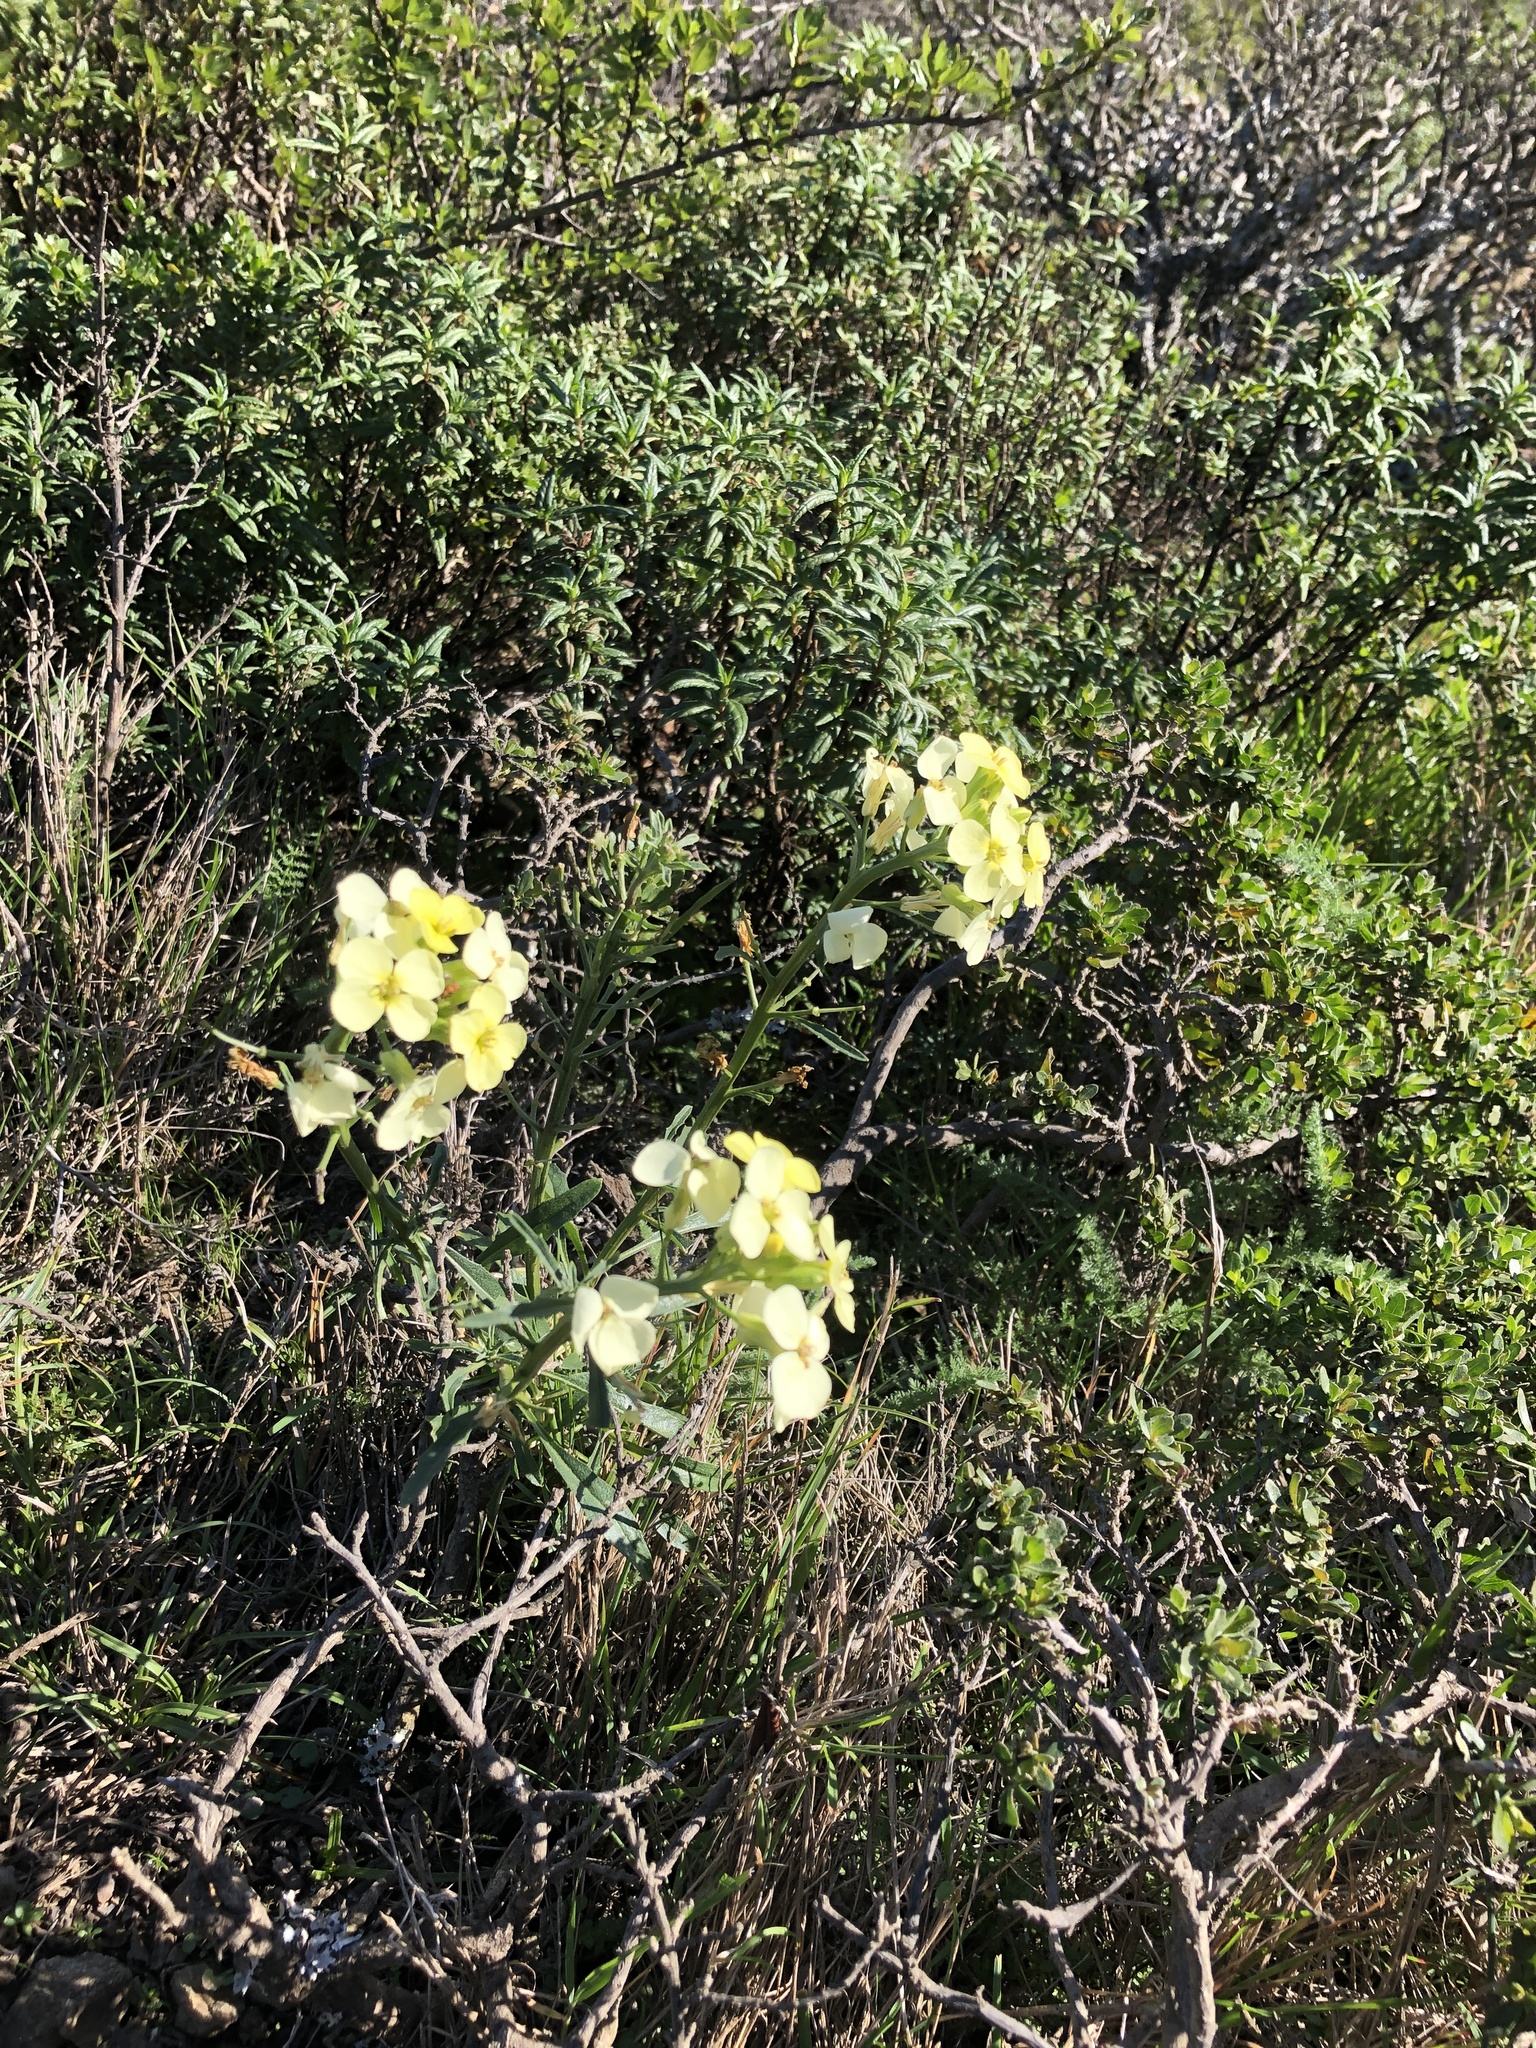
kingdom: Plantae
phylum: Tracheophyta
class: Magnoliopsida
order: Brassicales
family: Brassicaceae
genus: Erysimum
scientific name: Erysimum franciscanum
